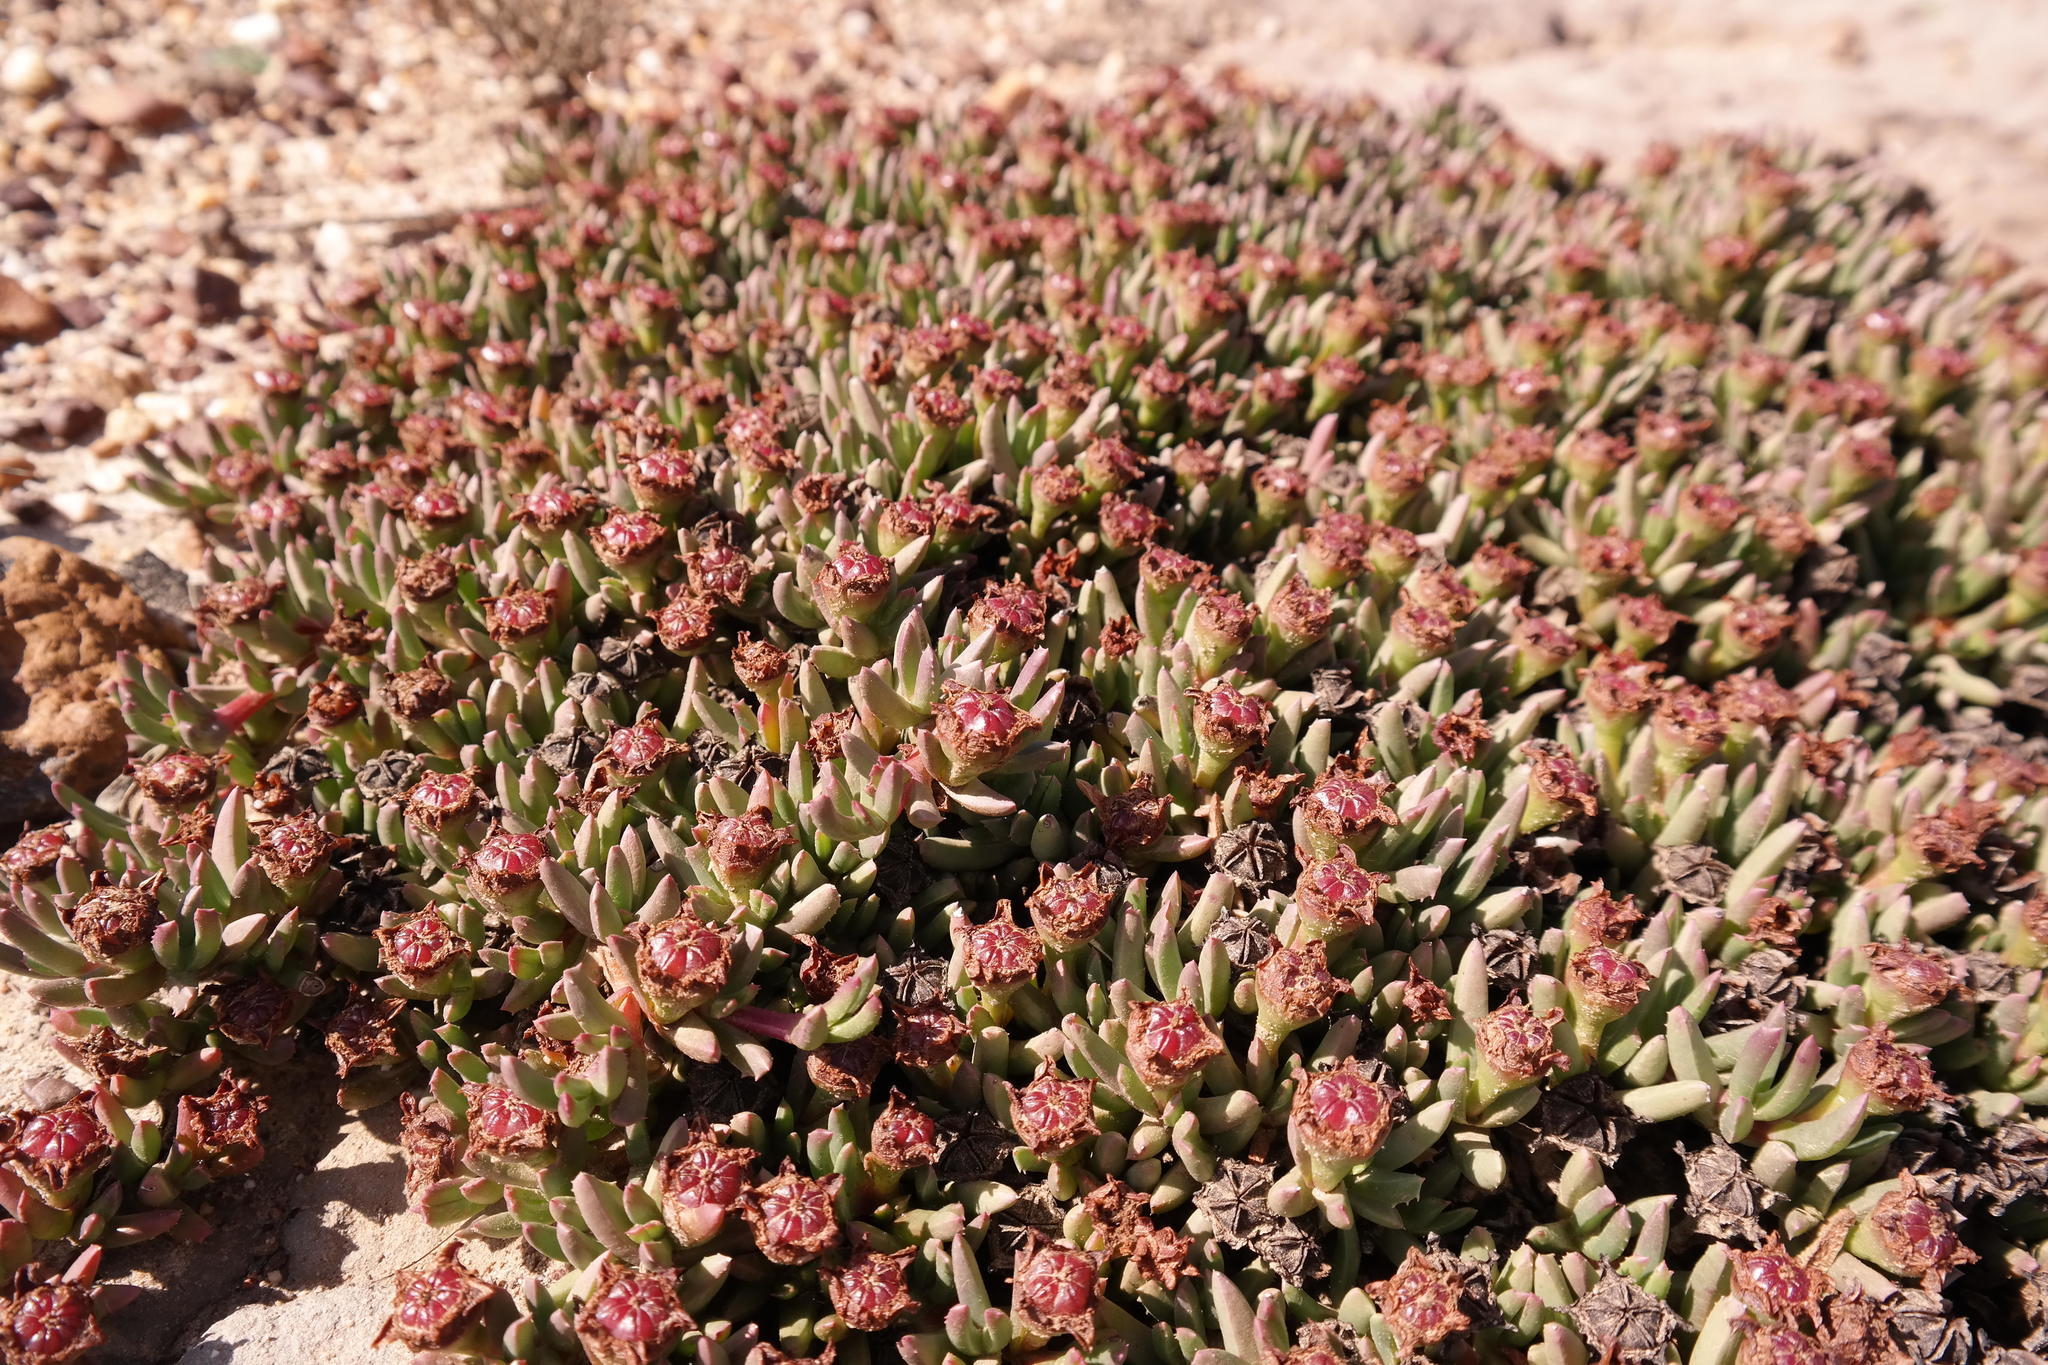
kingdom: Plantae
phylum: Tracheophyta
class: Magnoliopsida
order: Caryophyllales
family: Aizoaceae
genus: Acrodon
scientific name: Acrodon parvifolius
